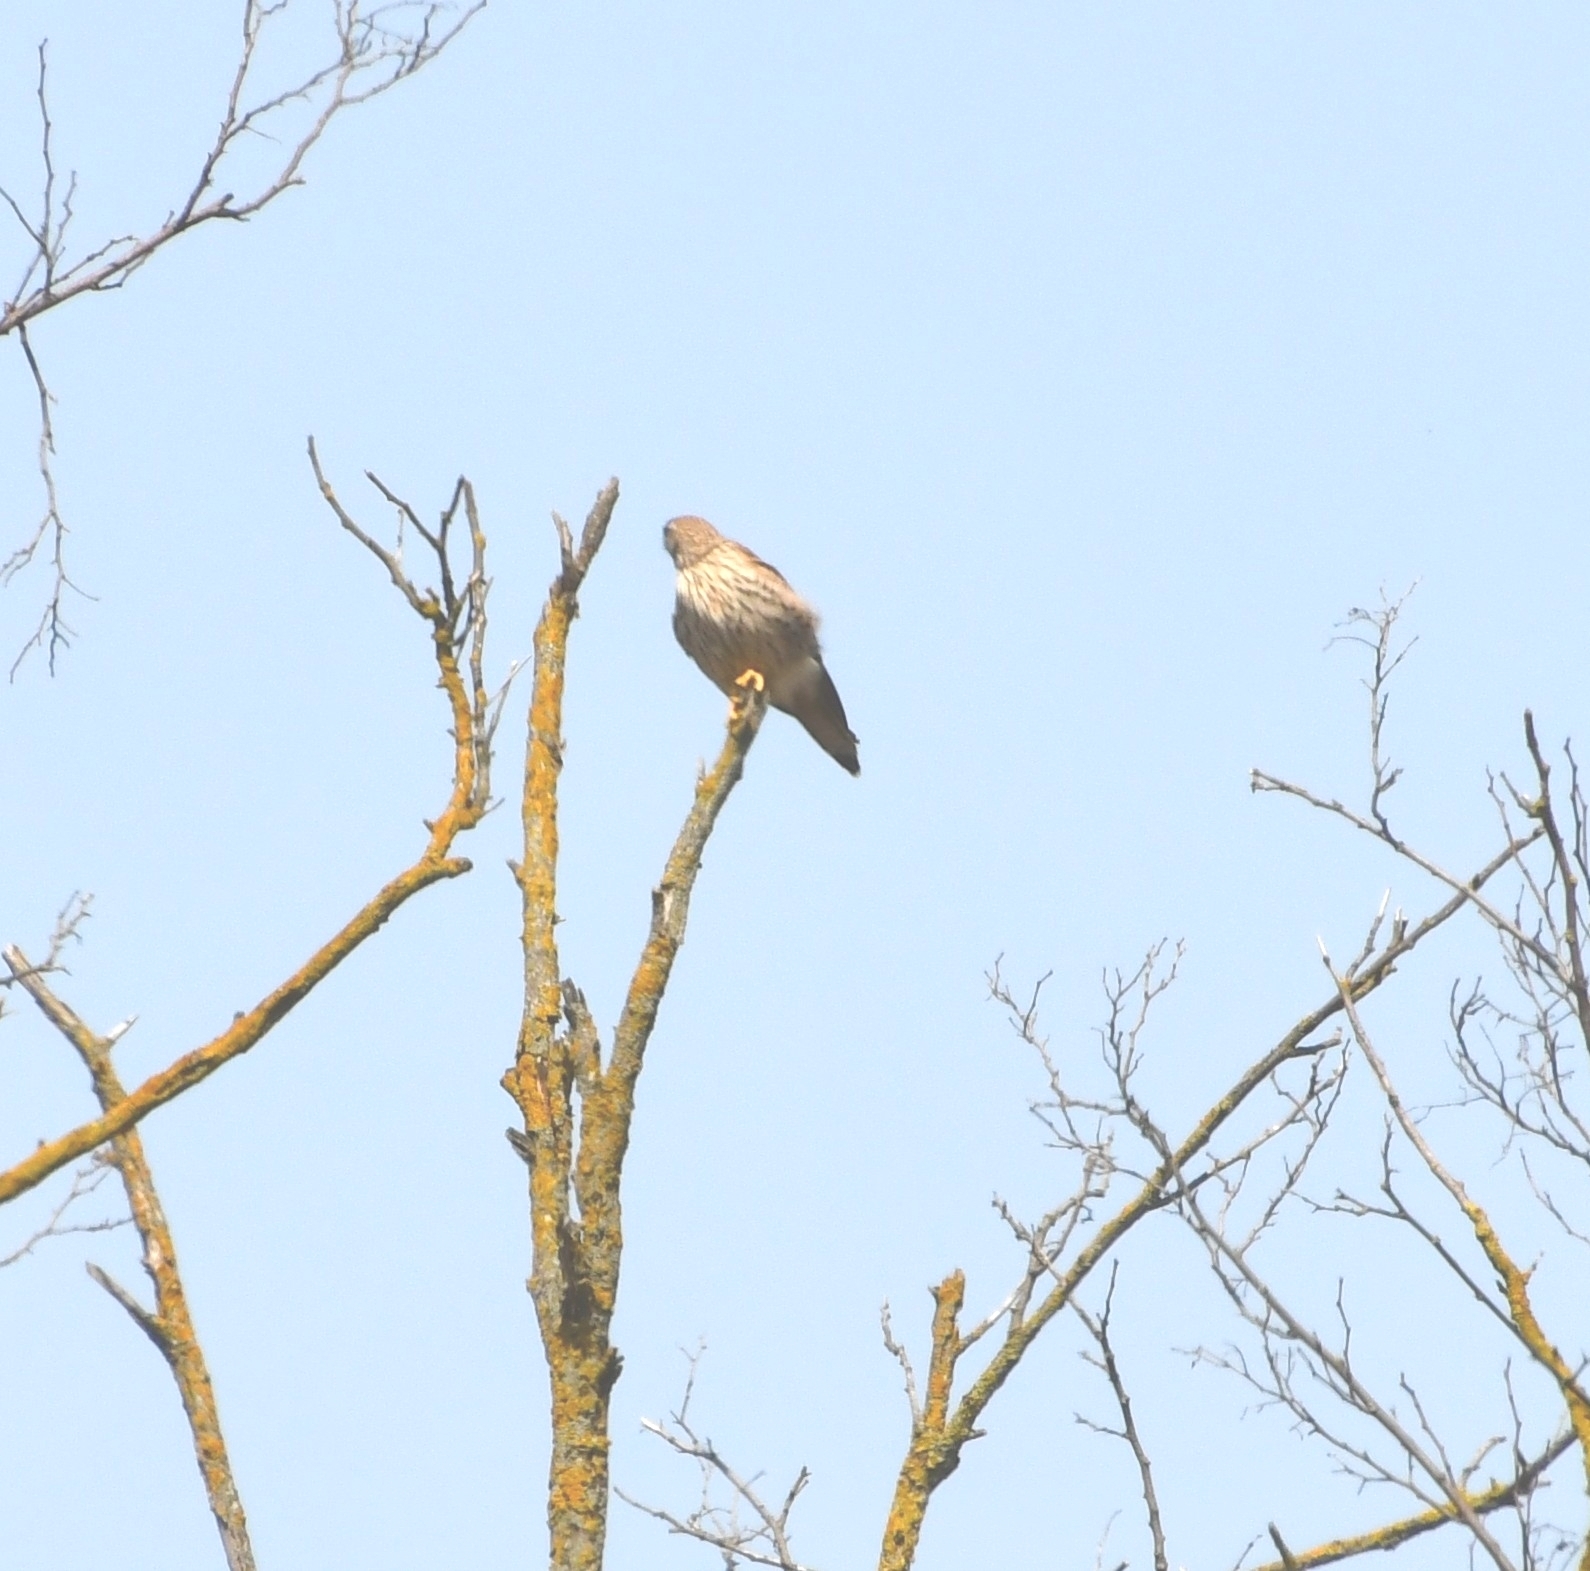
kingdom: Animalia
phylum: Chordata
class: Aves
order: Falconiformes
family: Falconidae
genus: Falco
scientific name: Falco tinnunculus
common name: Common kestrel
